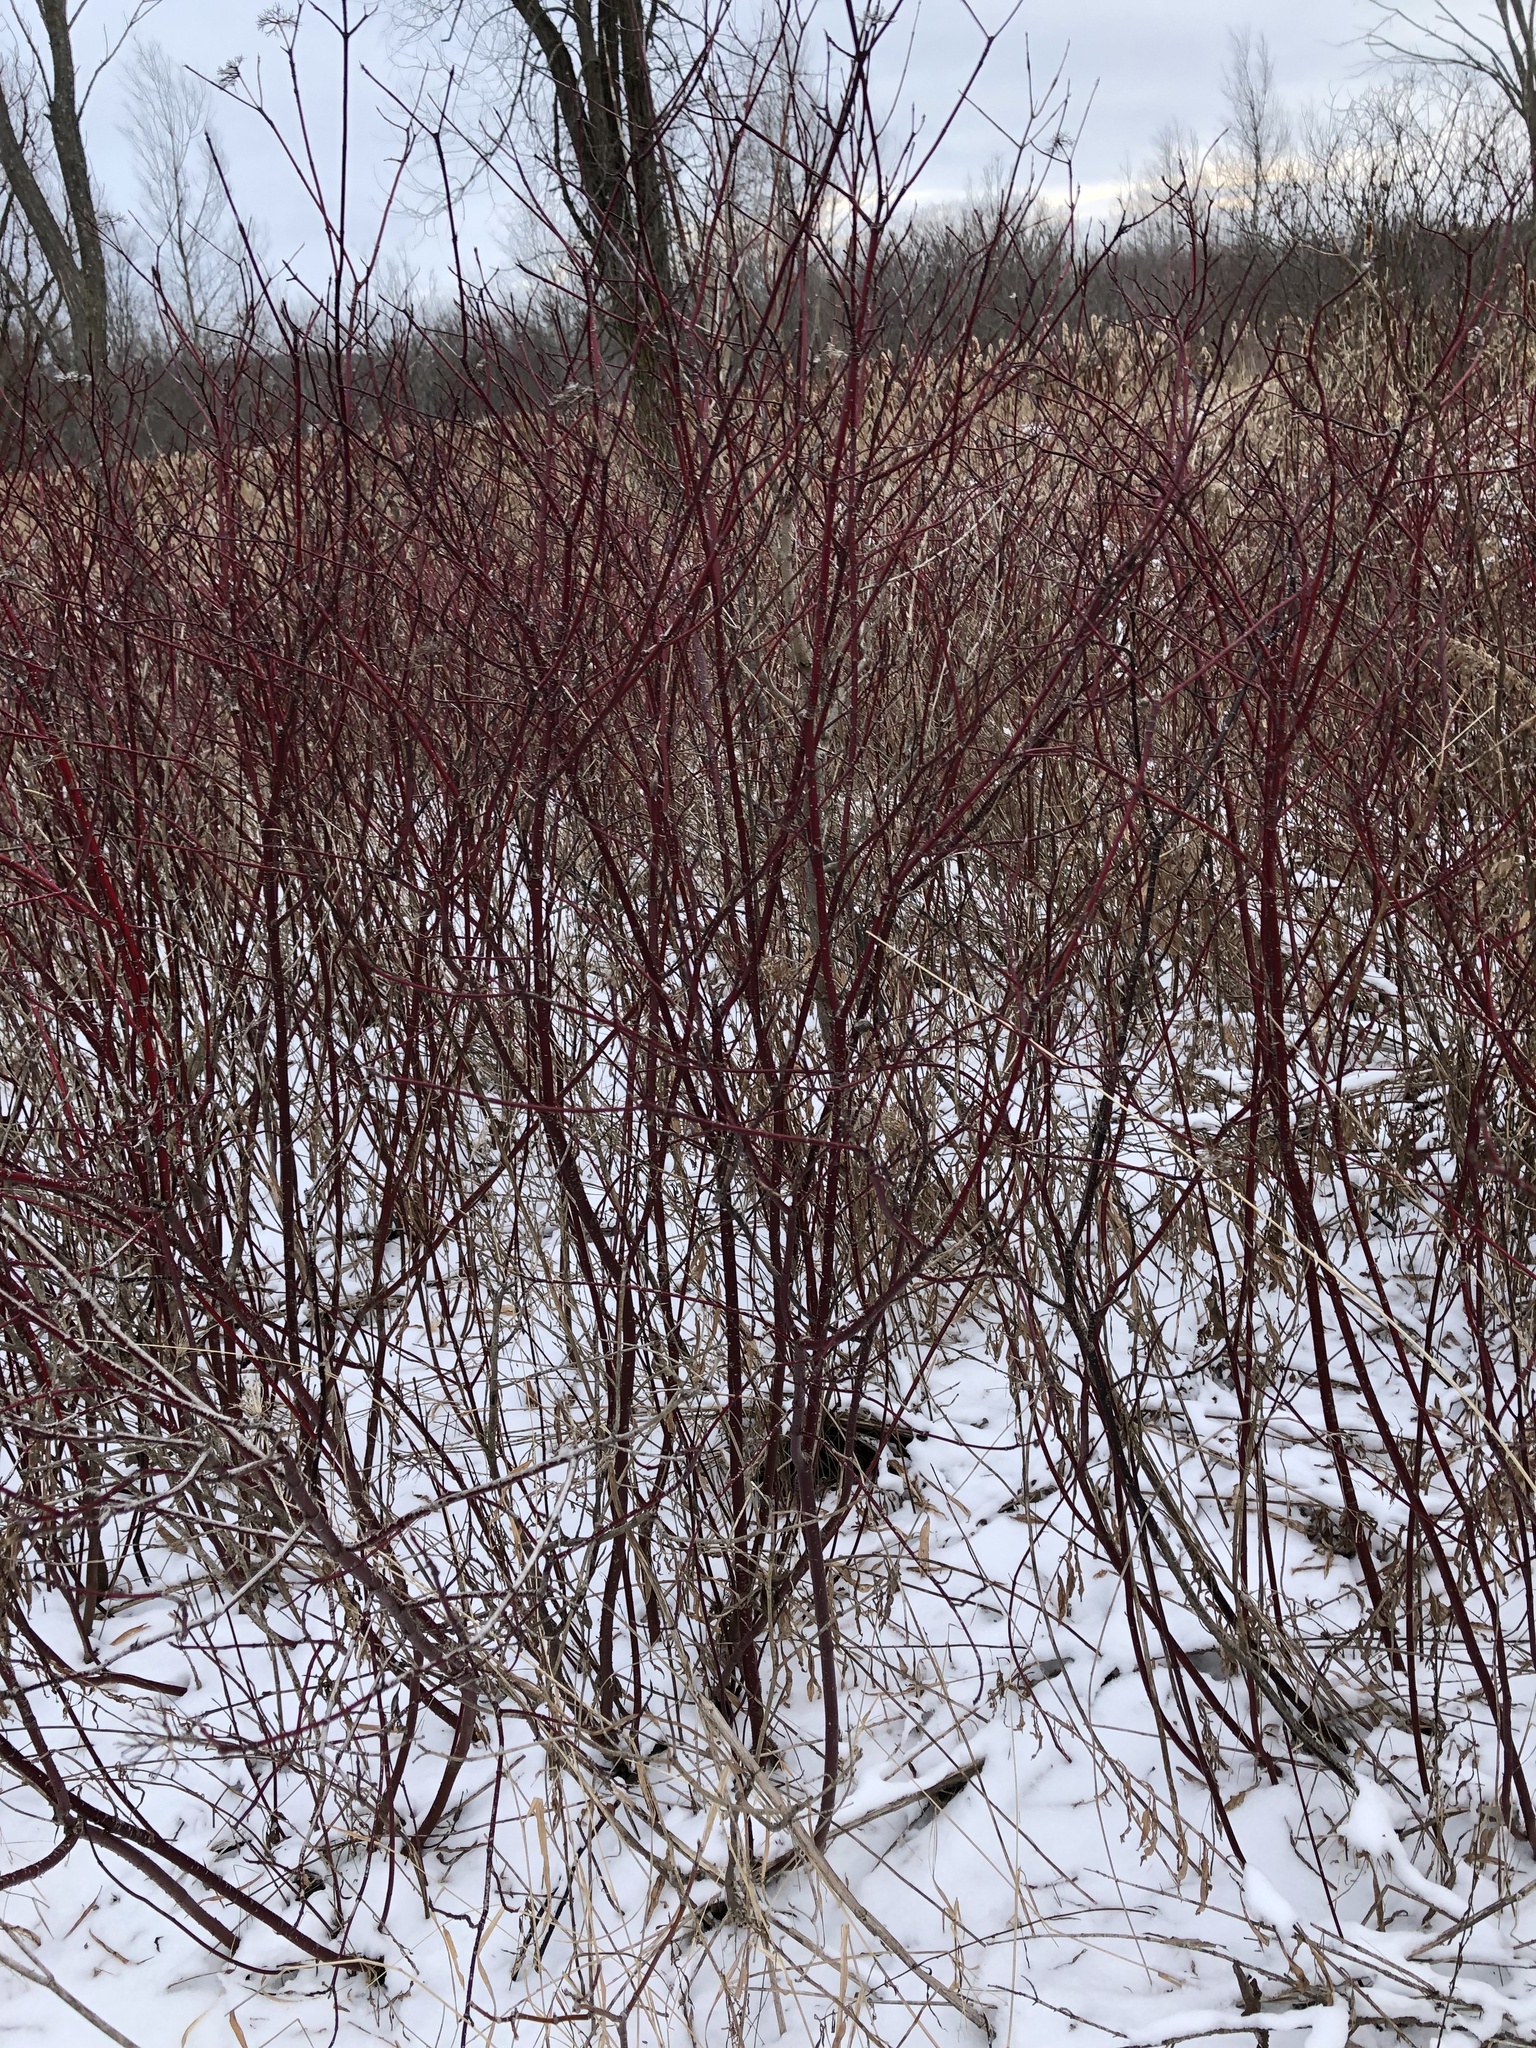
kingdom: Plantae
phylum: Tracheophyta
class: Magnoliopsida
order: Cornales
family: Cornaceae
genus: Cornus
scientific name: Cornus sericea
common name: Red-osier dogwood
